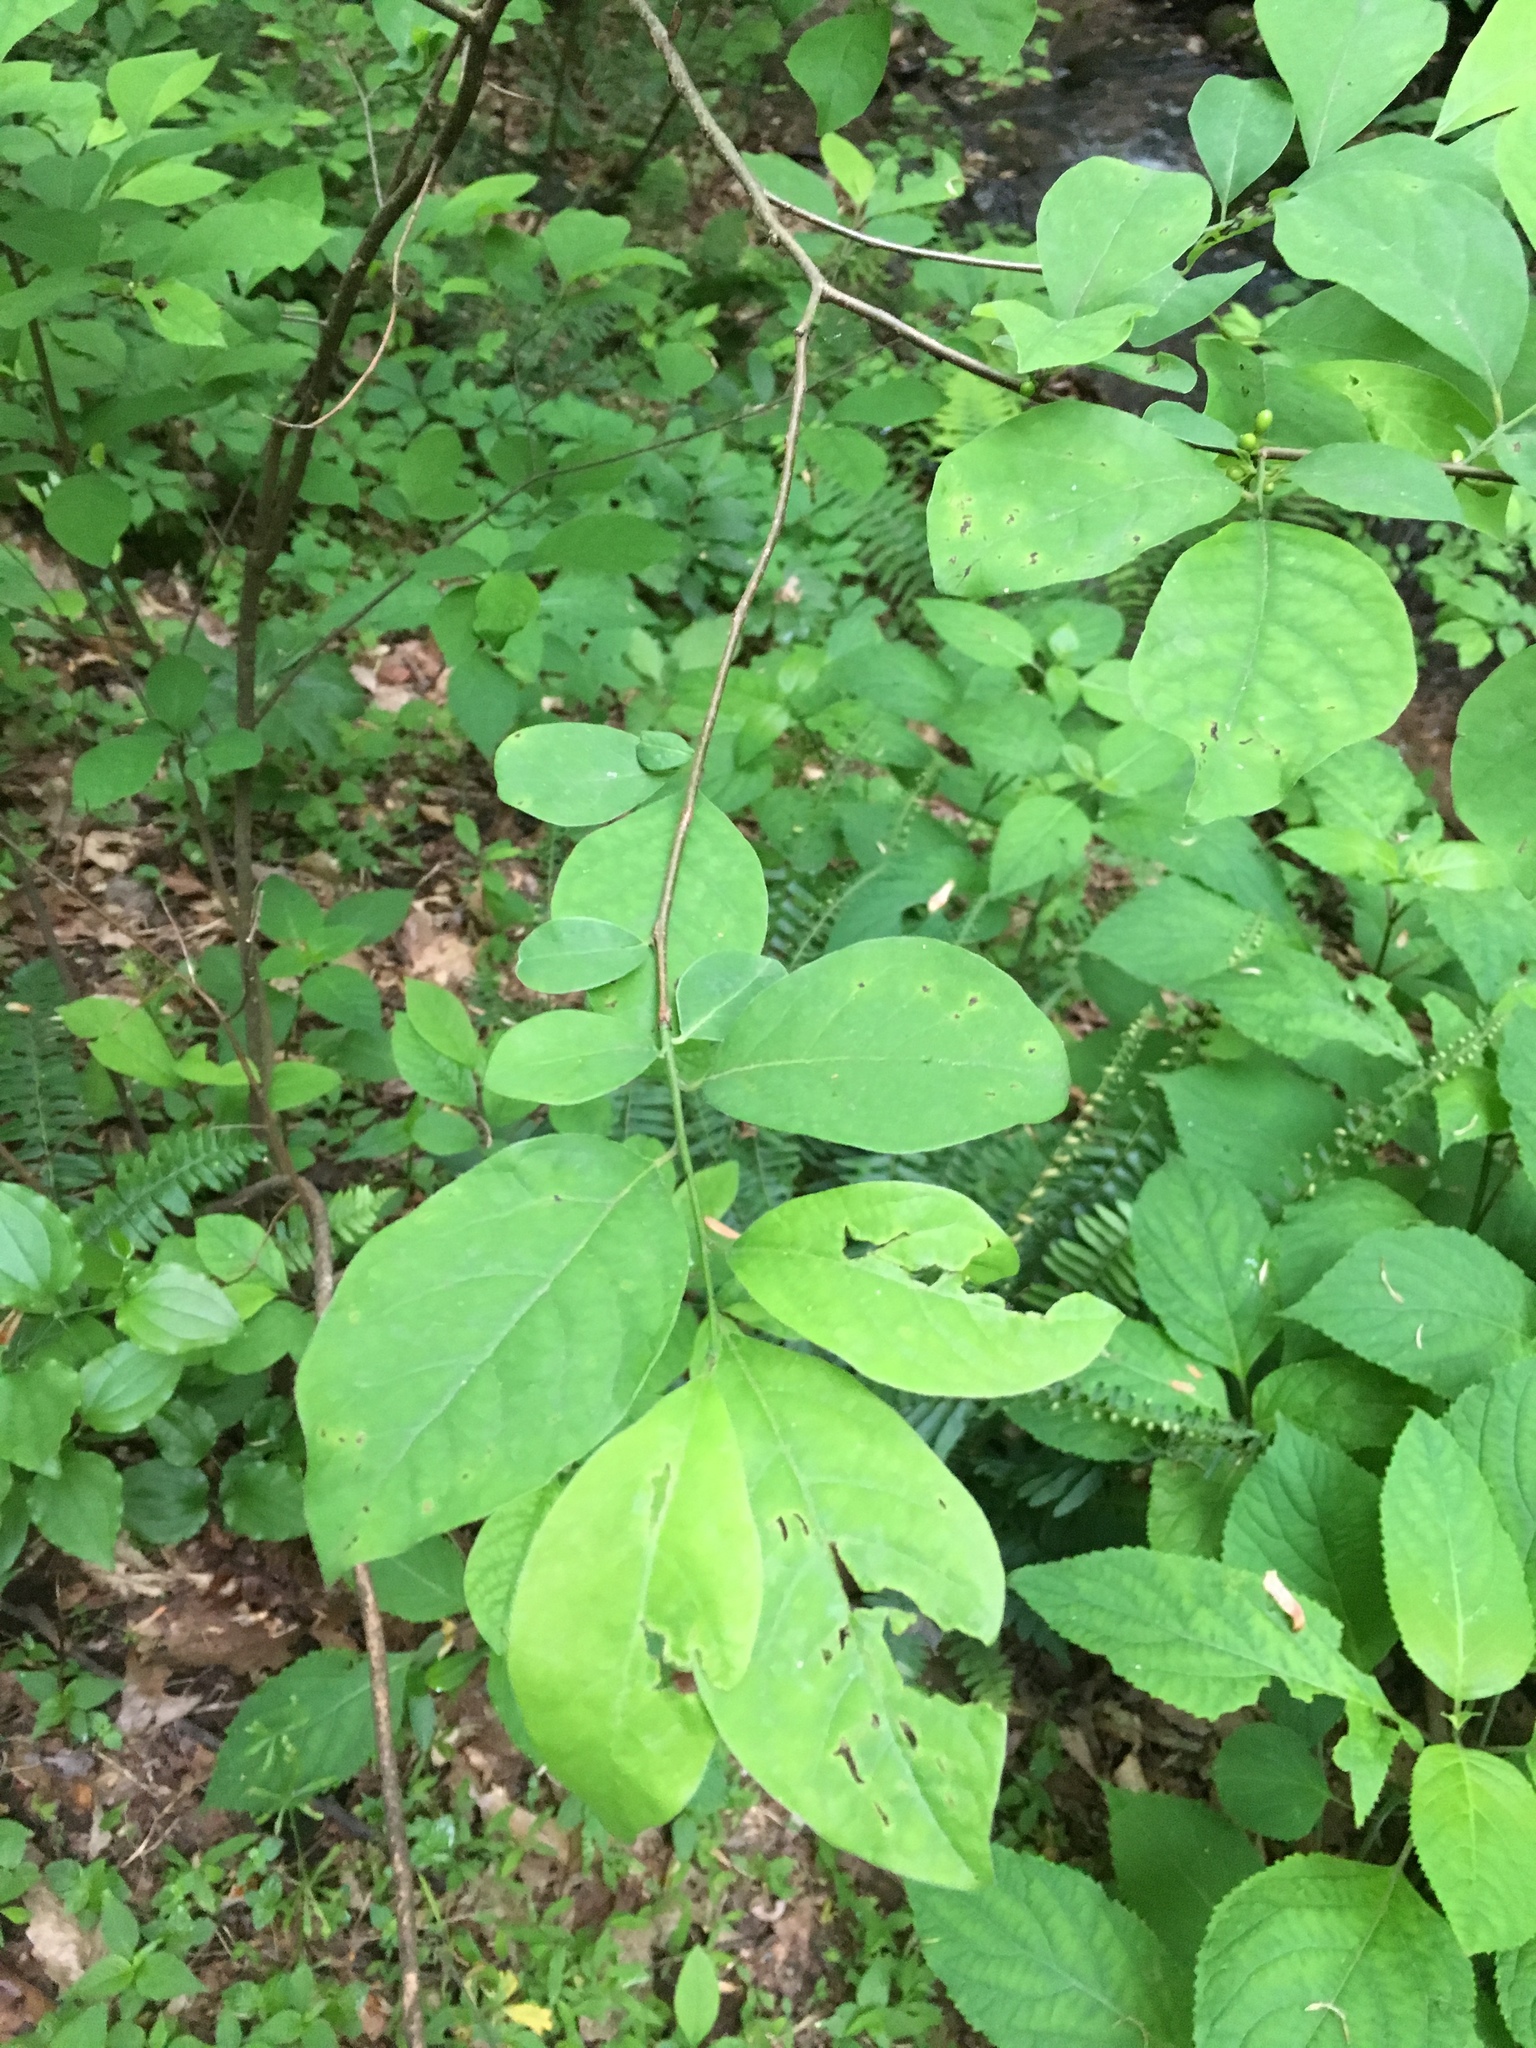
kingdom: Plantae
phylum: Tracheophyta
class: Magnoliopsida
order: Laurales
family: Lauraceae
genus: Lindera
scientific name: Lindera benzoin
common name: Spicebush
